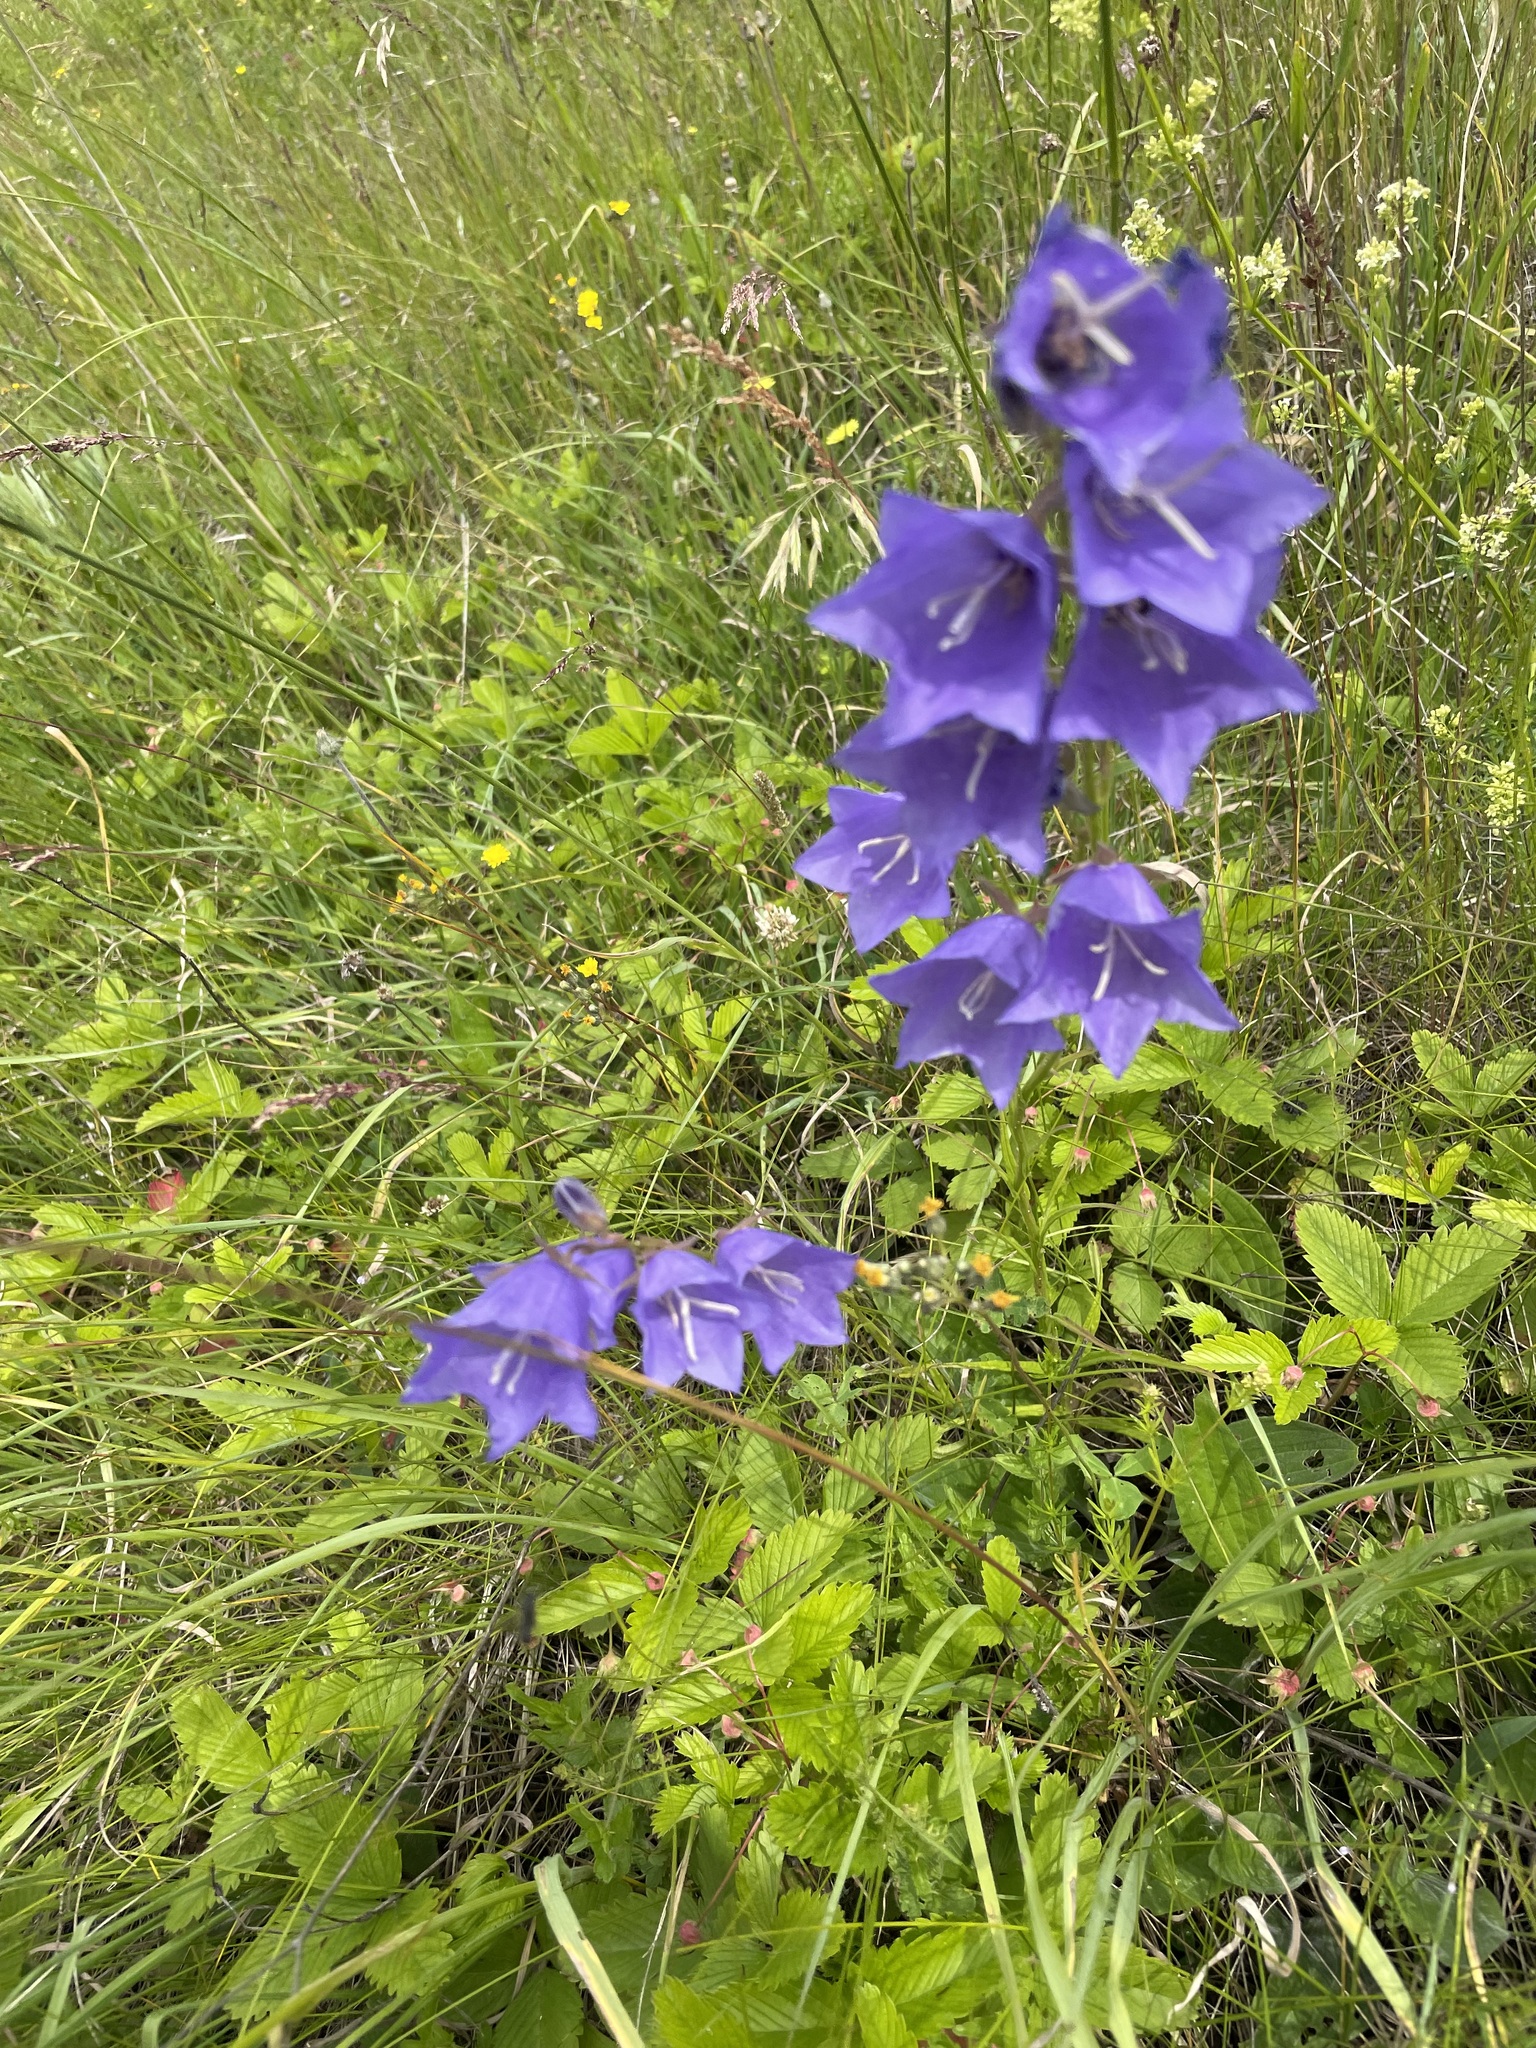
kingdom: Plantae
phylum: Tracheophyta
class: Magnoliopsida
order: Asterales
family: Campanulaceae
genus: Campanula
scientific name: Campanula persicifolia
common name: Peach-leaved bellflower
